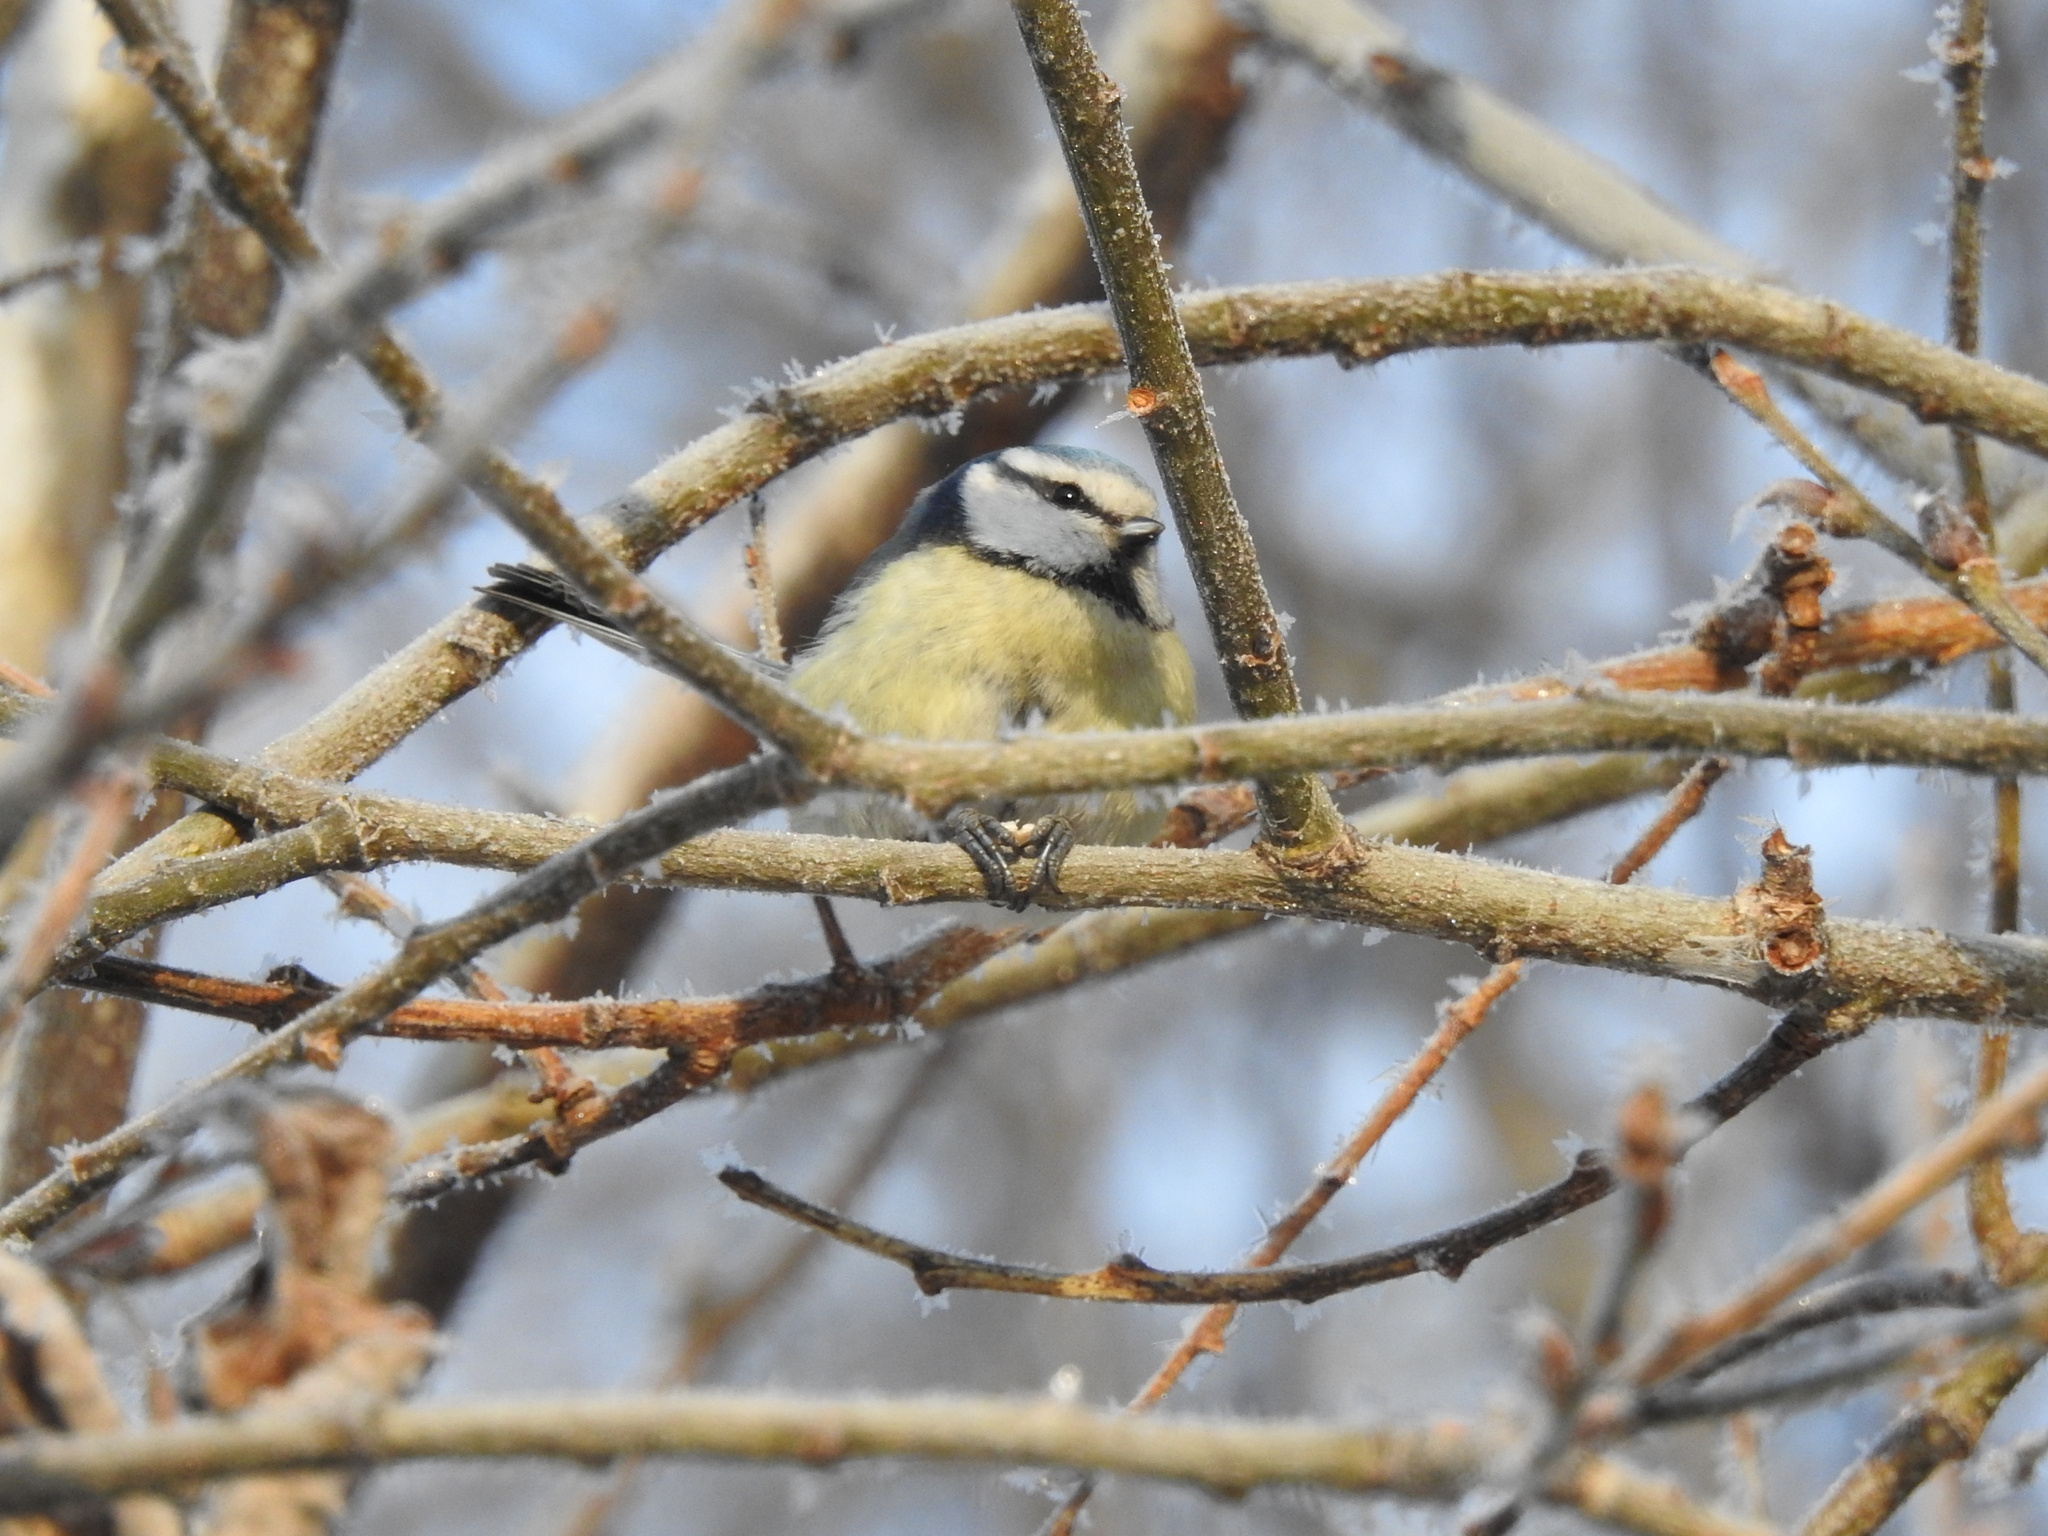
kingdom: Animalia
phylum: Chordata
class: Aves
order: Passeriformes
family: Paridae
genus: Cyanistes
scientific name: Cyanistes caeruleus
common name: Eurasian blue tit
